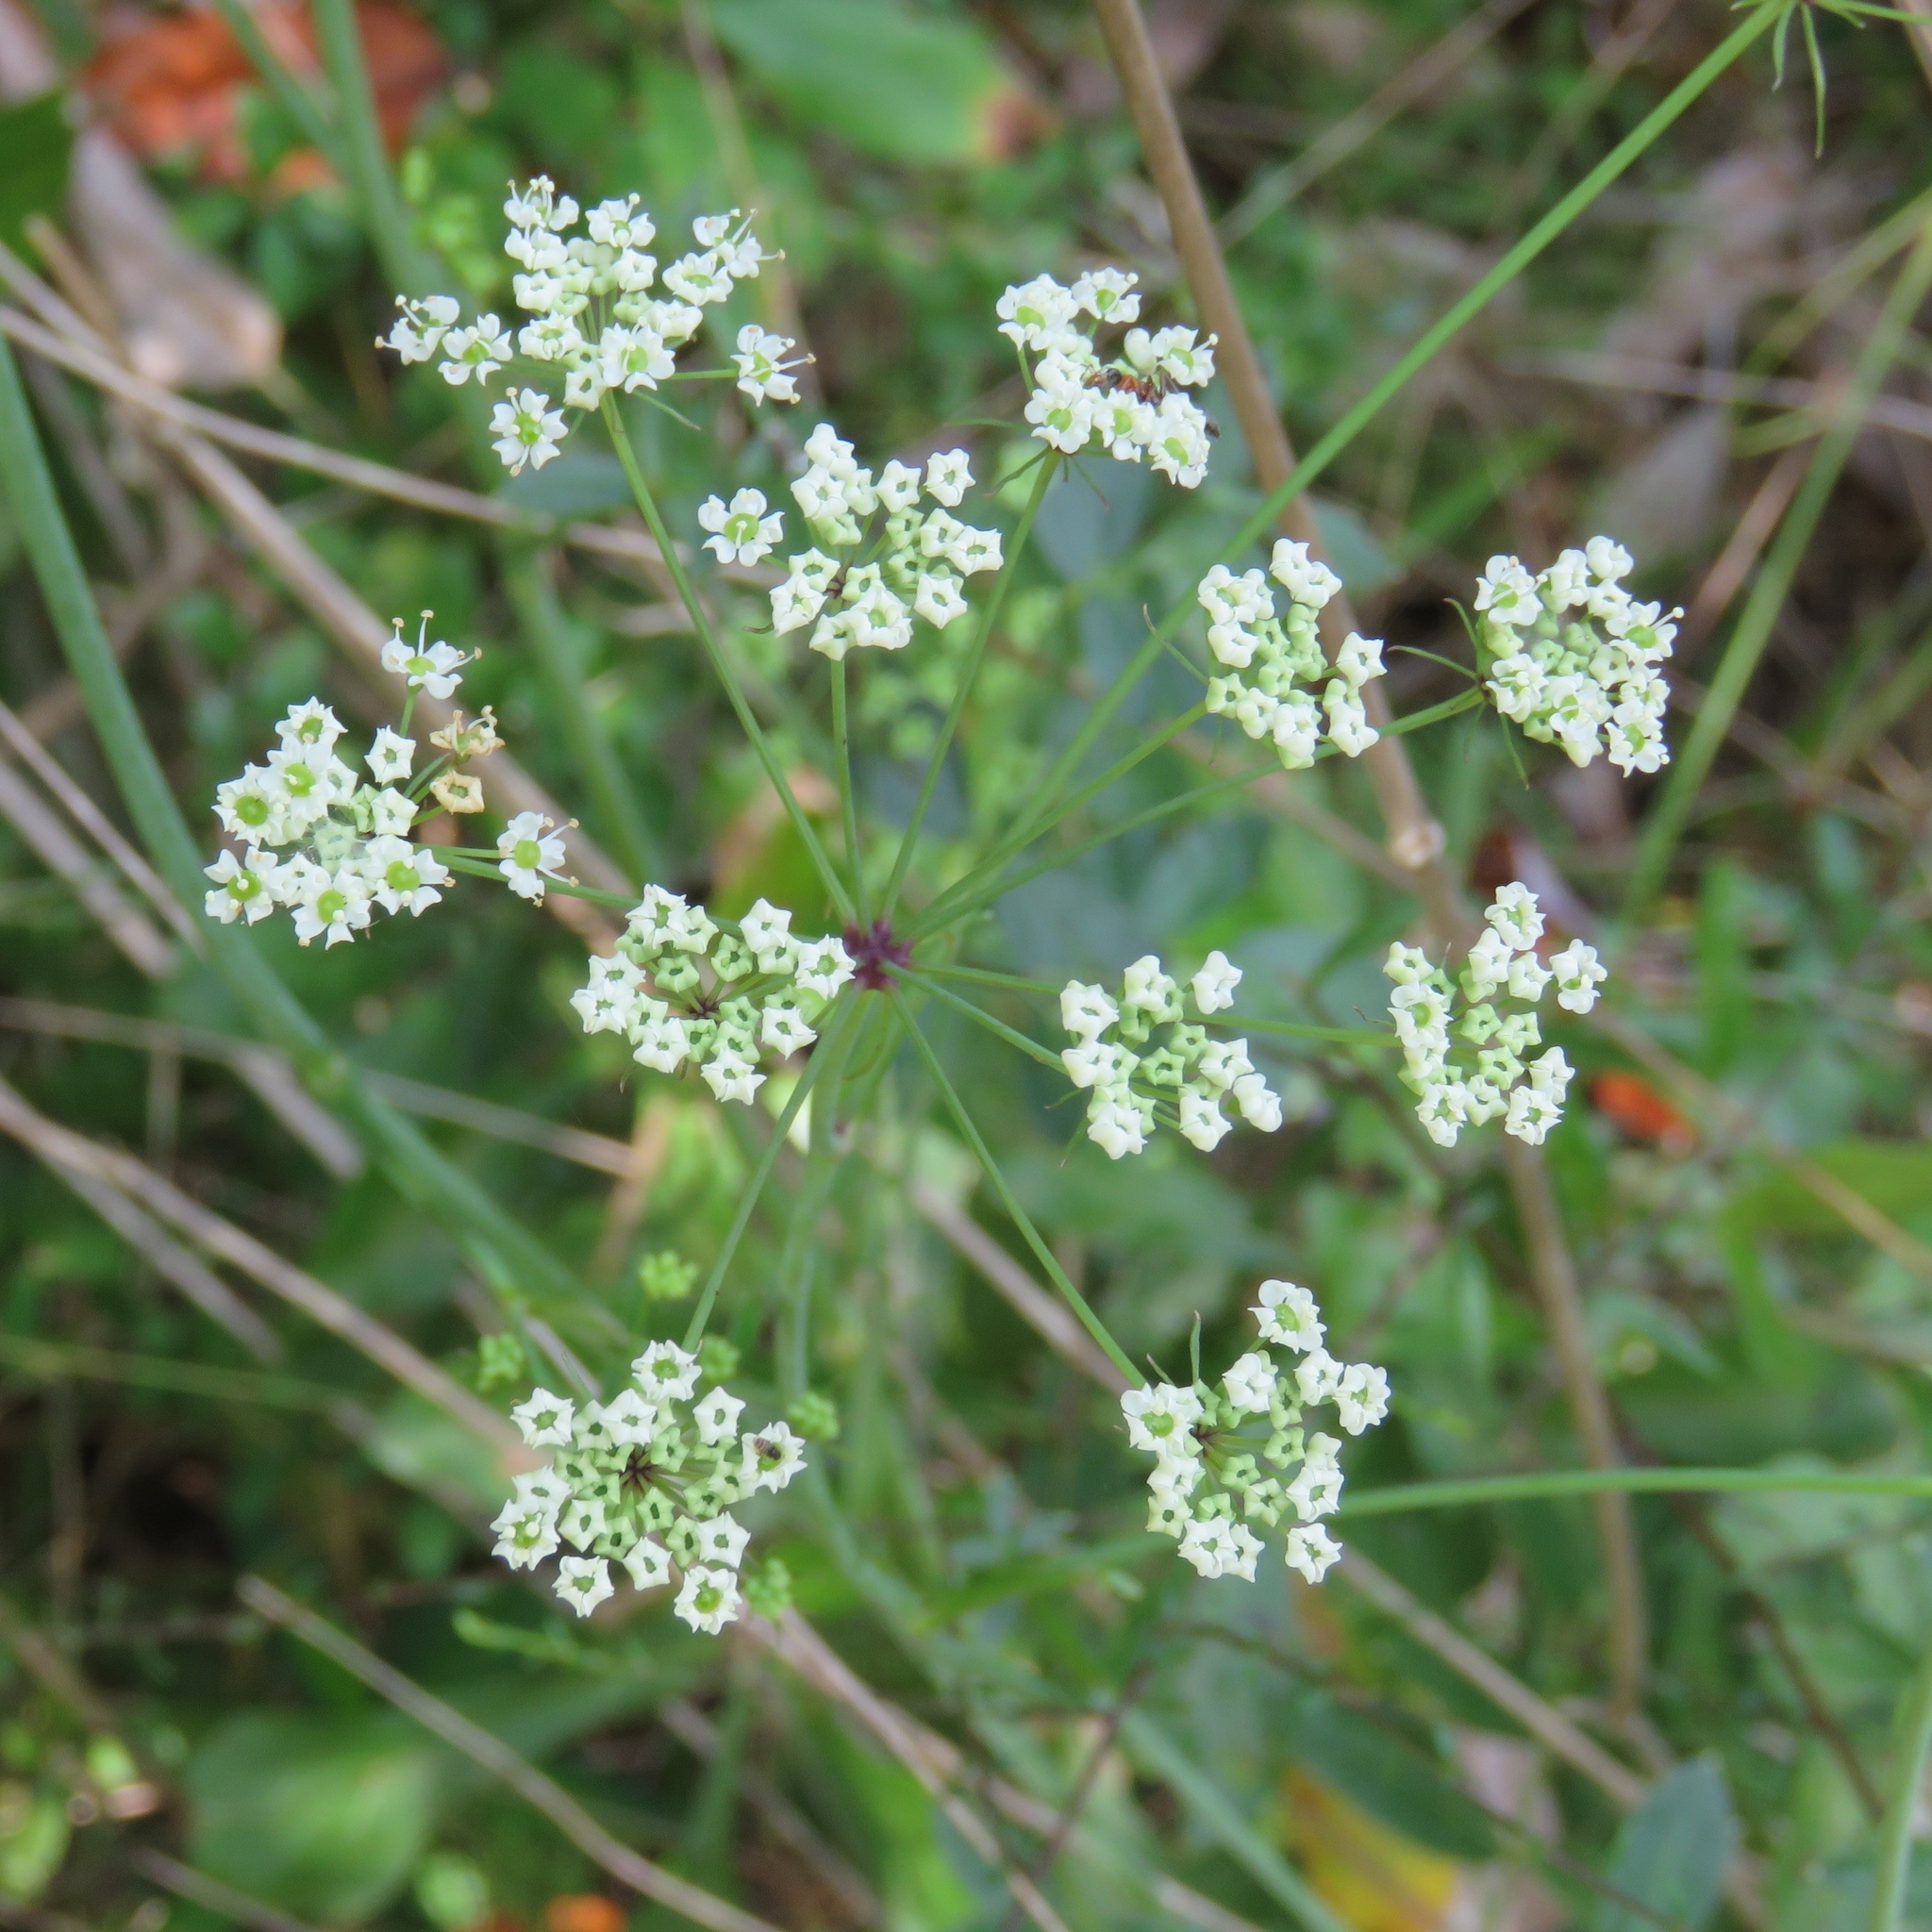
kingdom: Plantae
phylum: Tracheophyta
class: Magnoliopsida
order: Apiales
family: Apiaceae
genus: Oxypolis
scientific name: Oxypolis rigidior
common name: Cowbane
